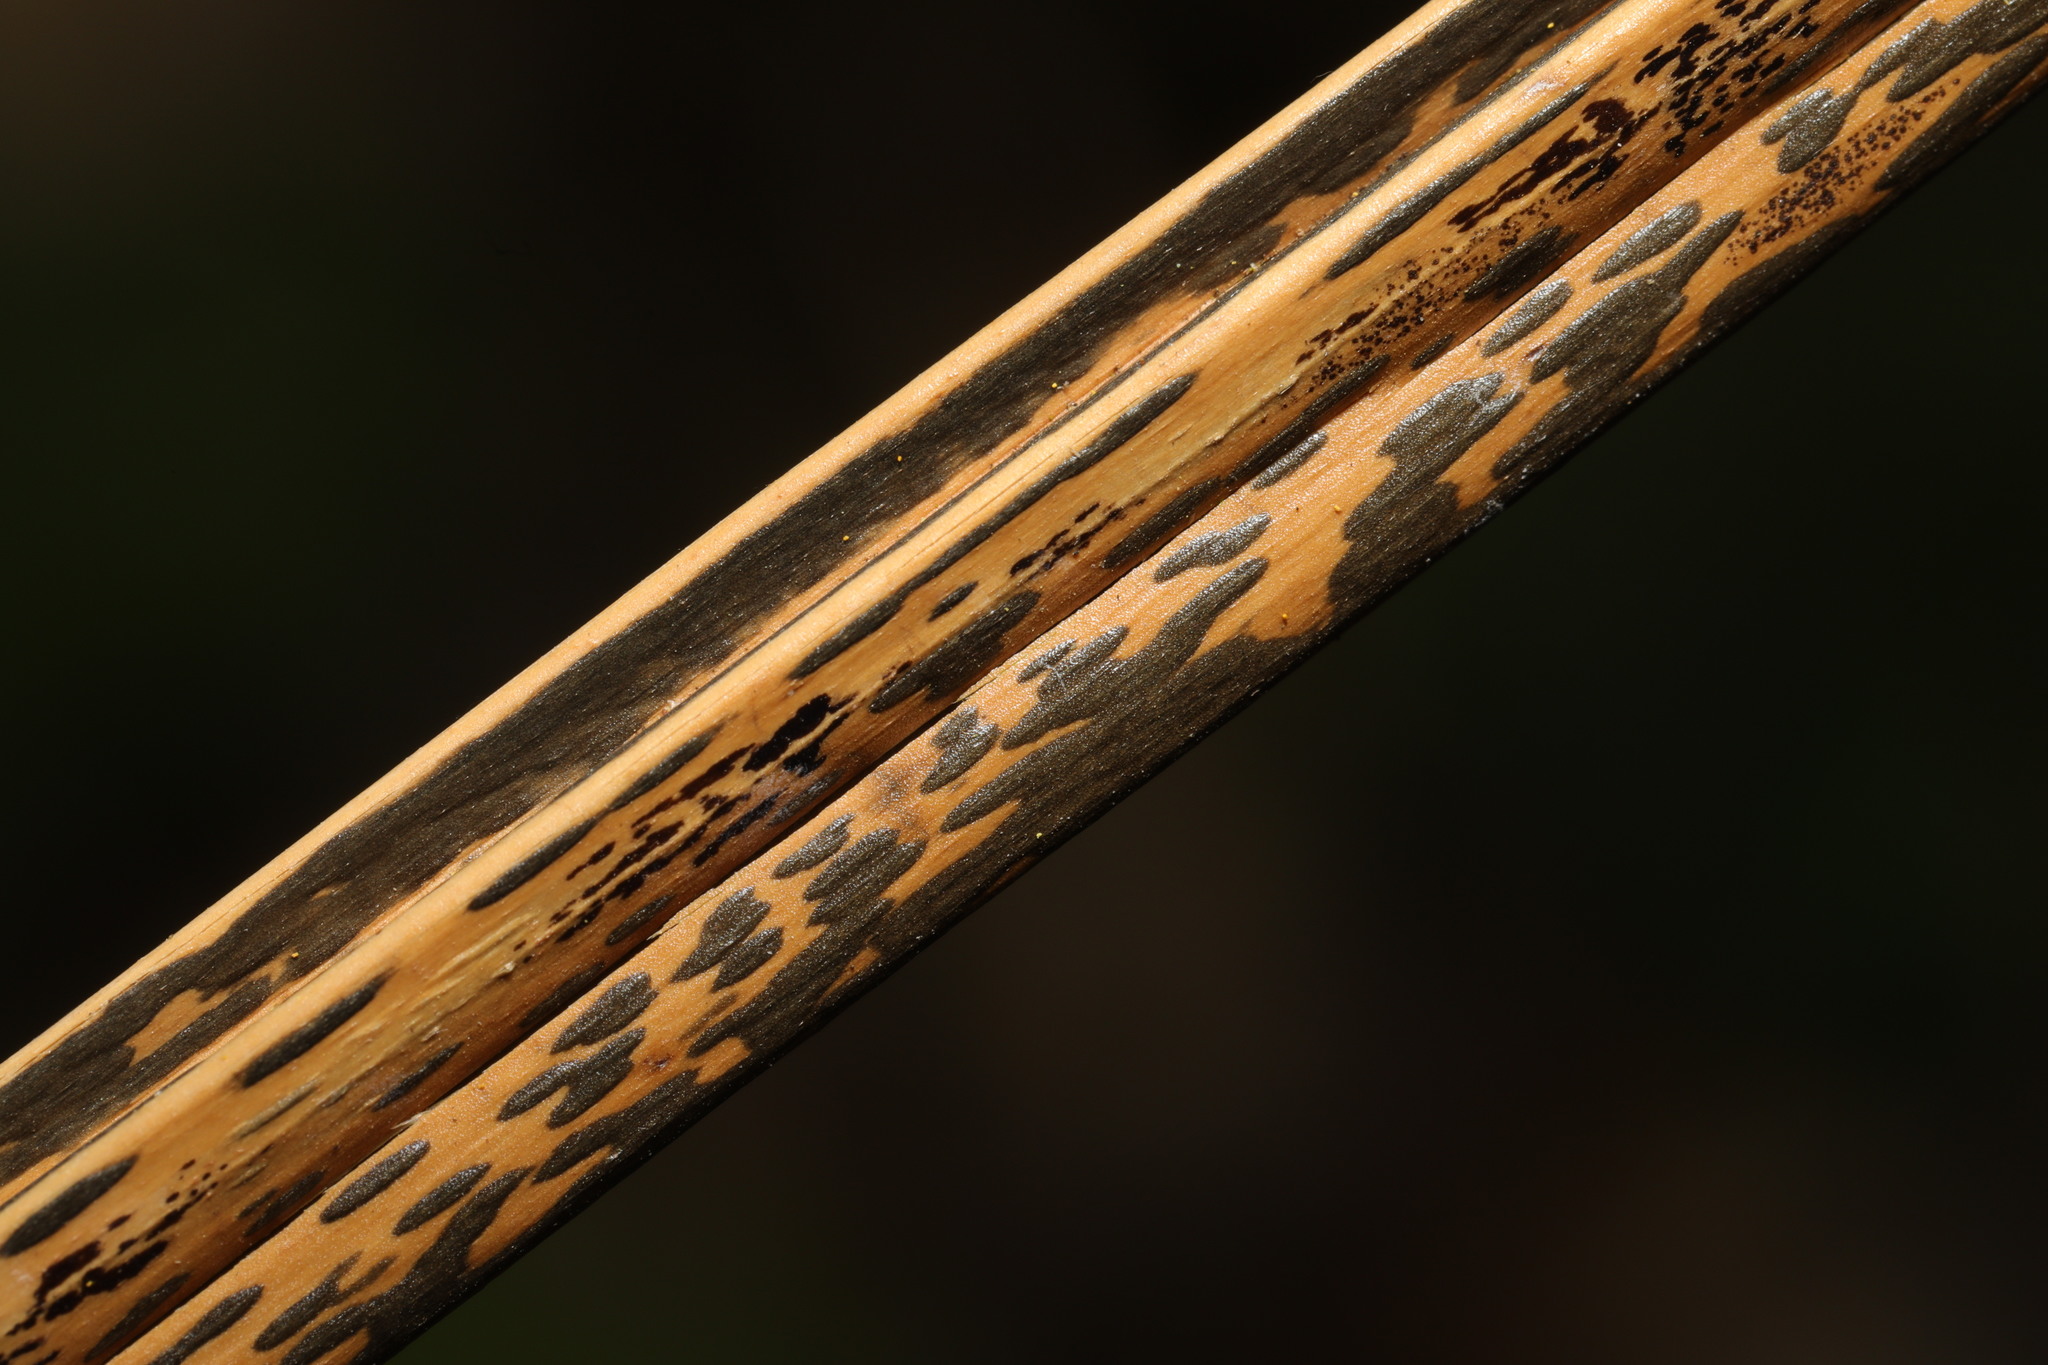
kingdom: Fungi
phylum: Ascomycota
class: Dothideomycetes
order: Pleosporales
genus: Rhopographus
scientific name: Rhopographus filicinus
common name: Bracken map
